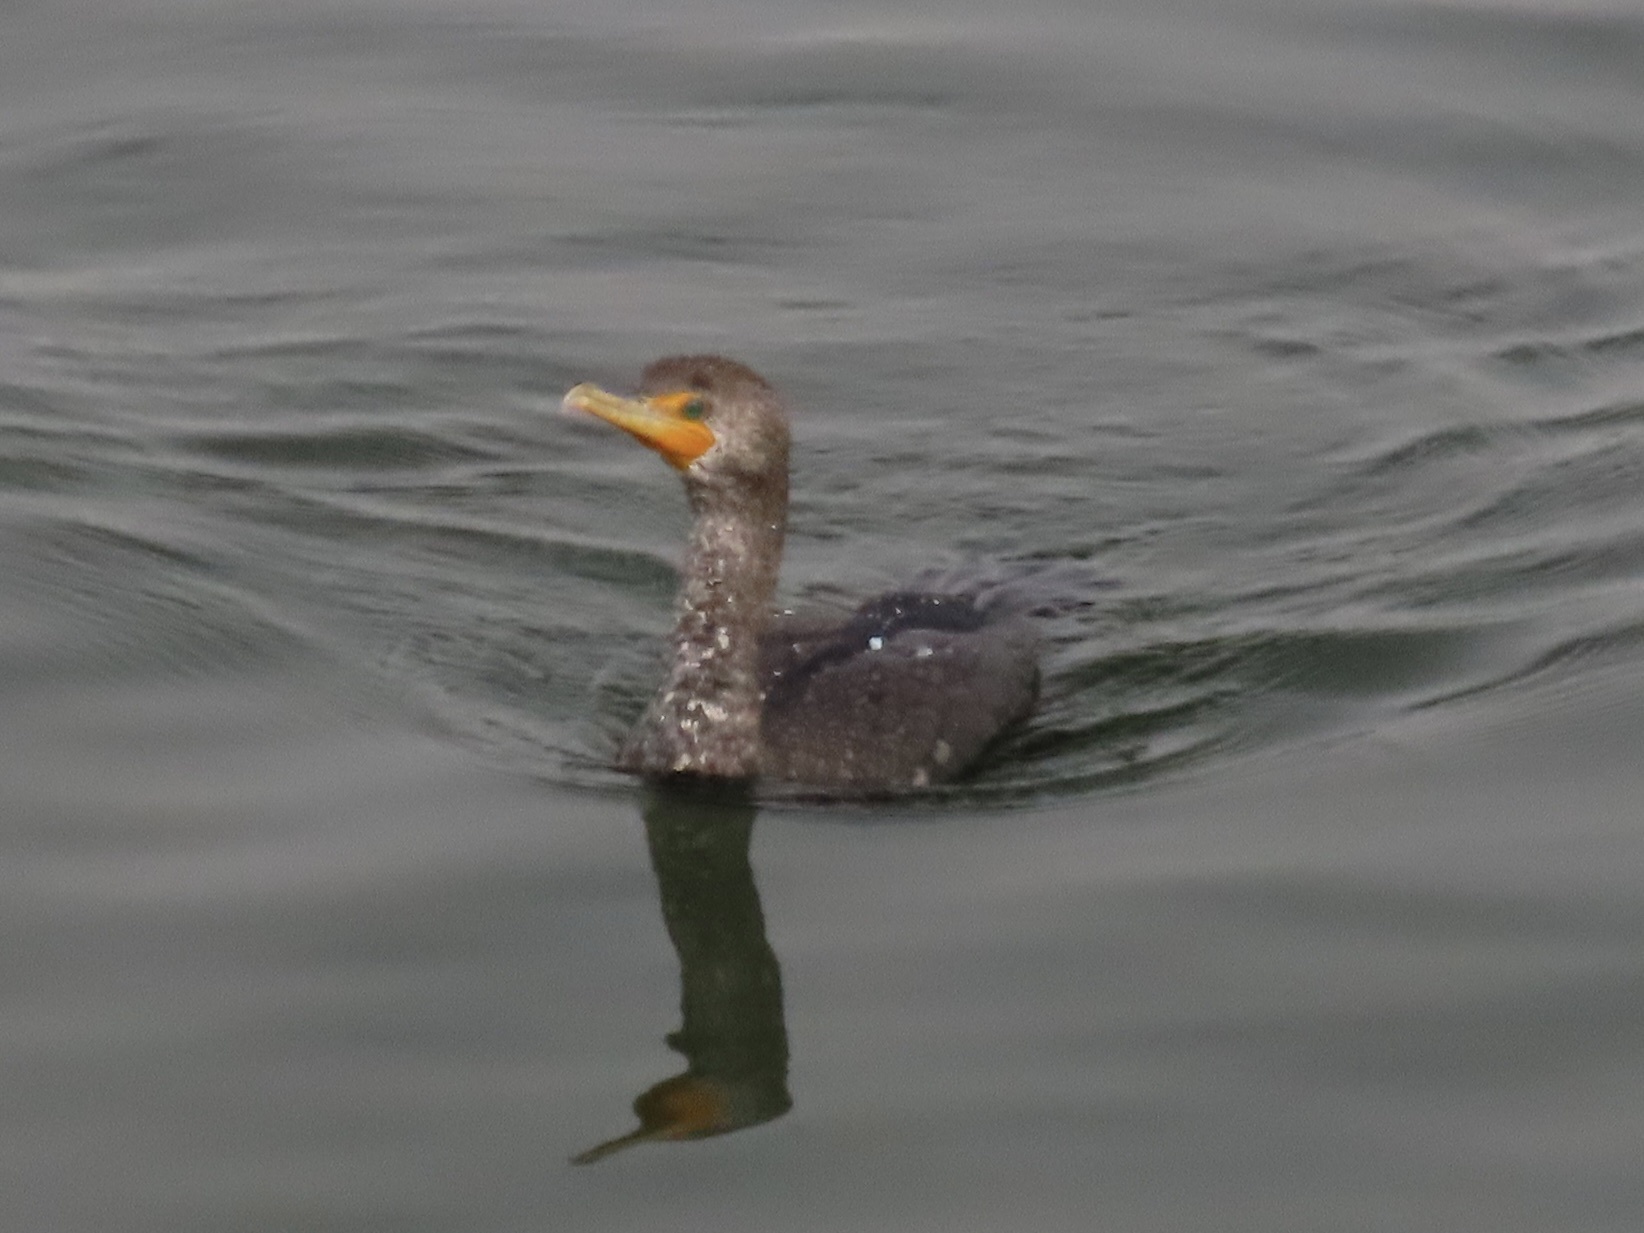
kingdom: Animalia
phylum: Chordata
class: Aves
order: Suliformes
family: Phalacrocoracidae
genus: Phalacrocorax
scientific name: Phalacrocorax auritus
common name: Double-crested cormorant
